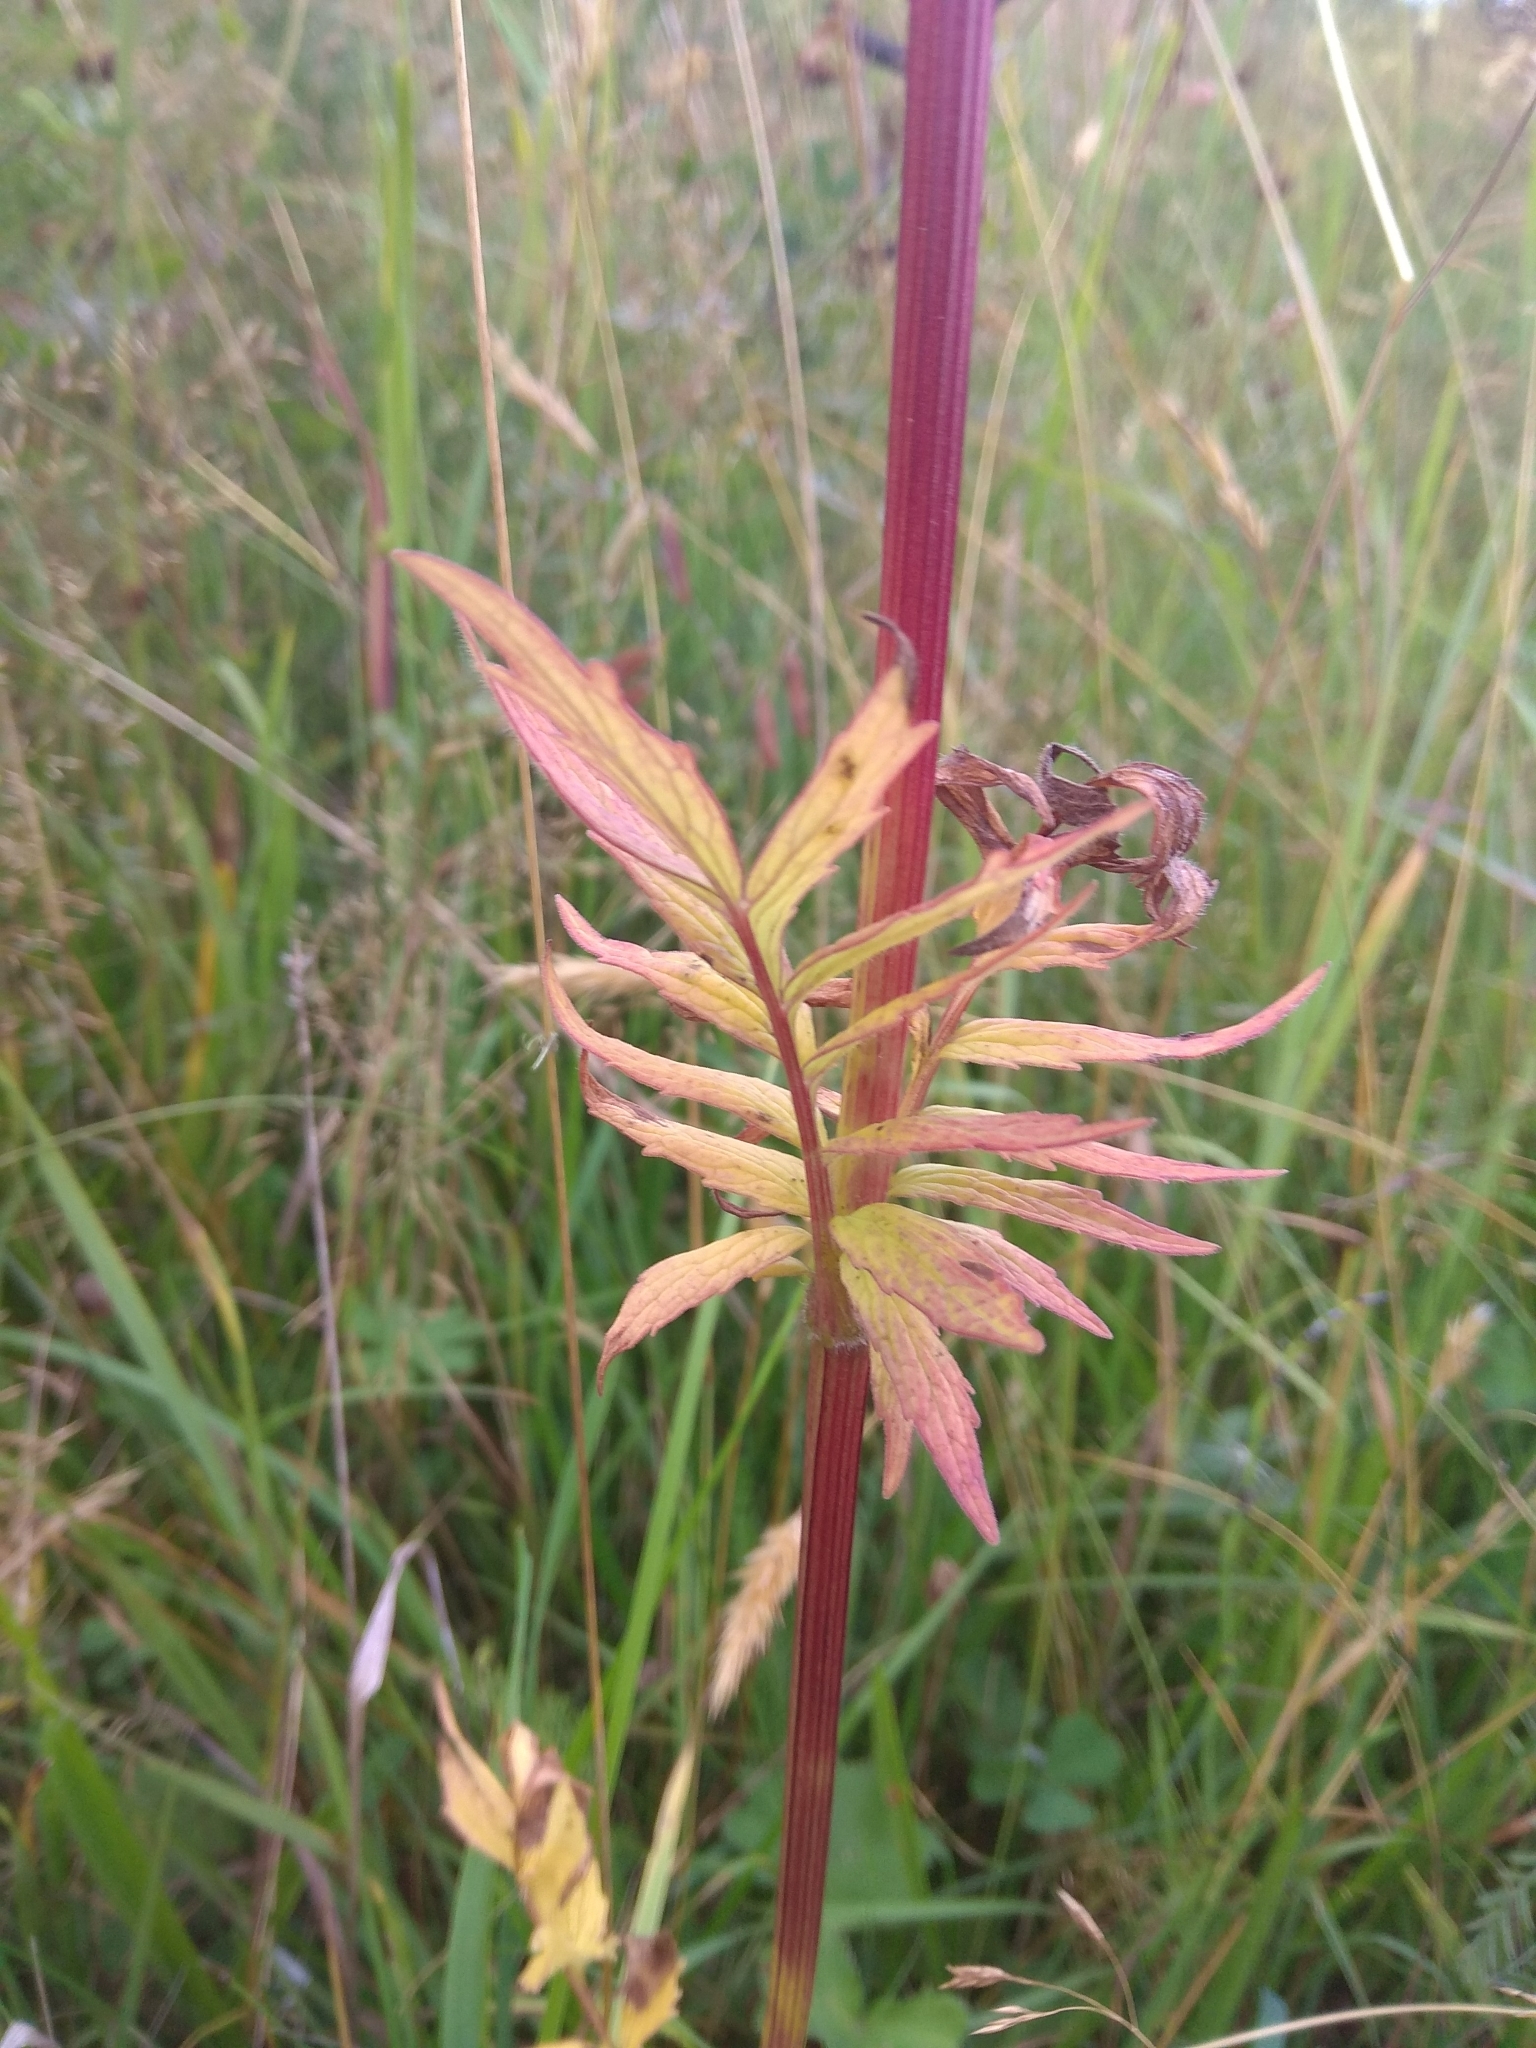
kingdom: Plantae
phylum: Tracheophyta
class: Magnoliopsida
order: Dipsacales
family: Caprifoliaceae
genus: Valeriana
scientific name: Valeriana officinalis
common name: Common valerian
